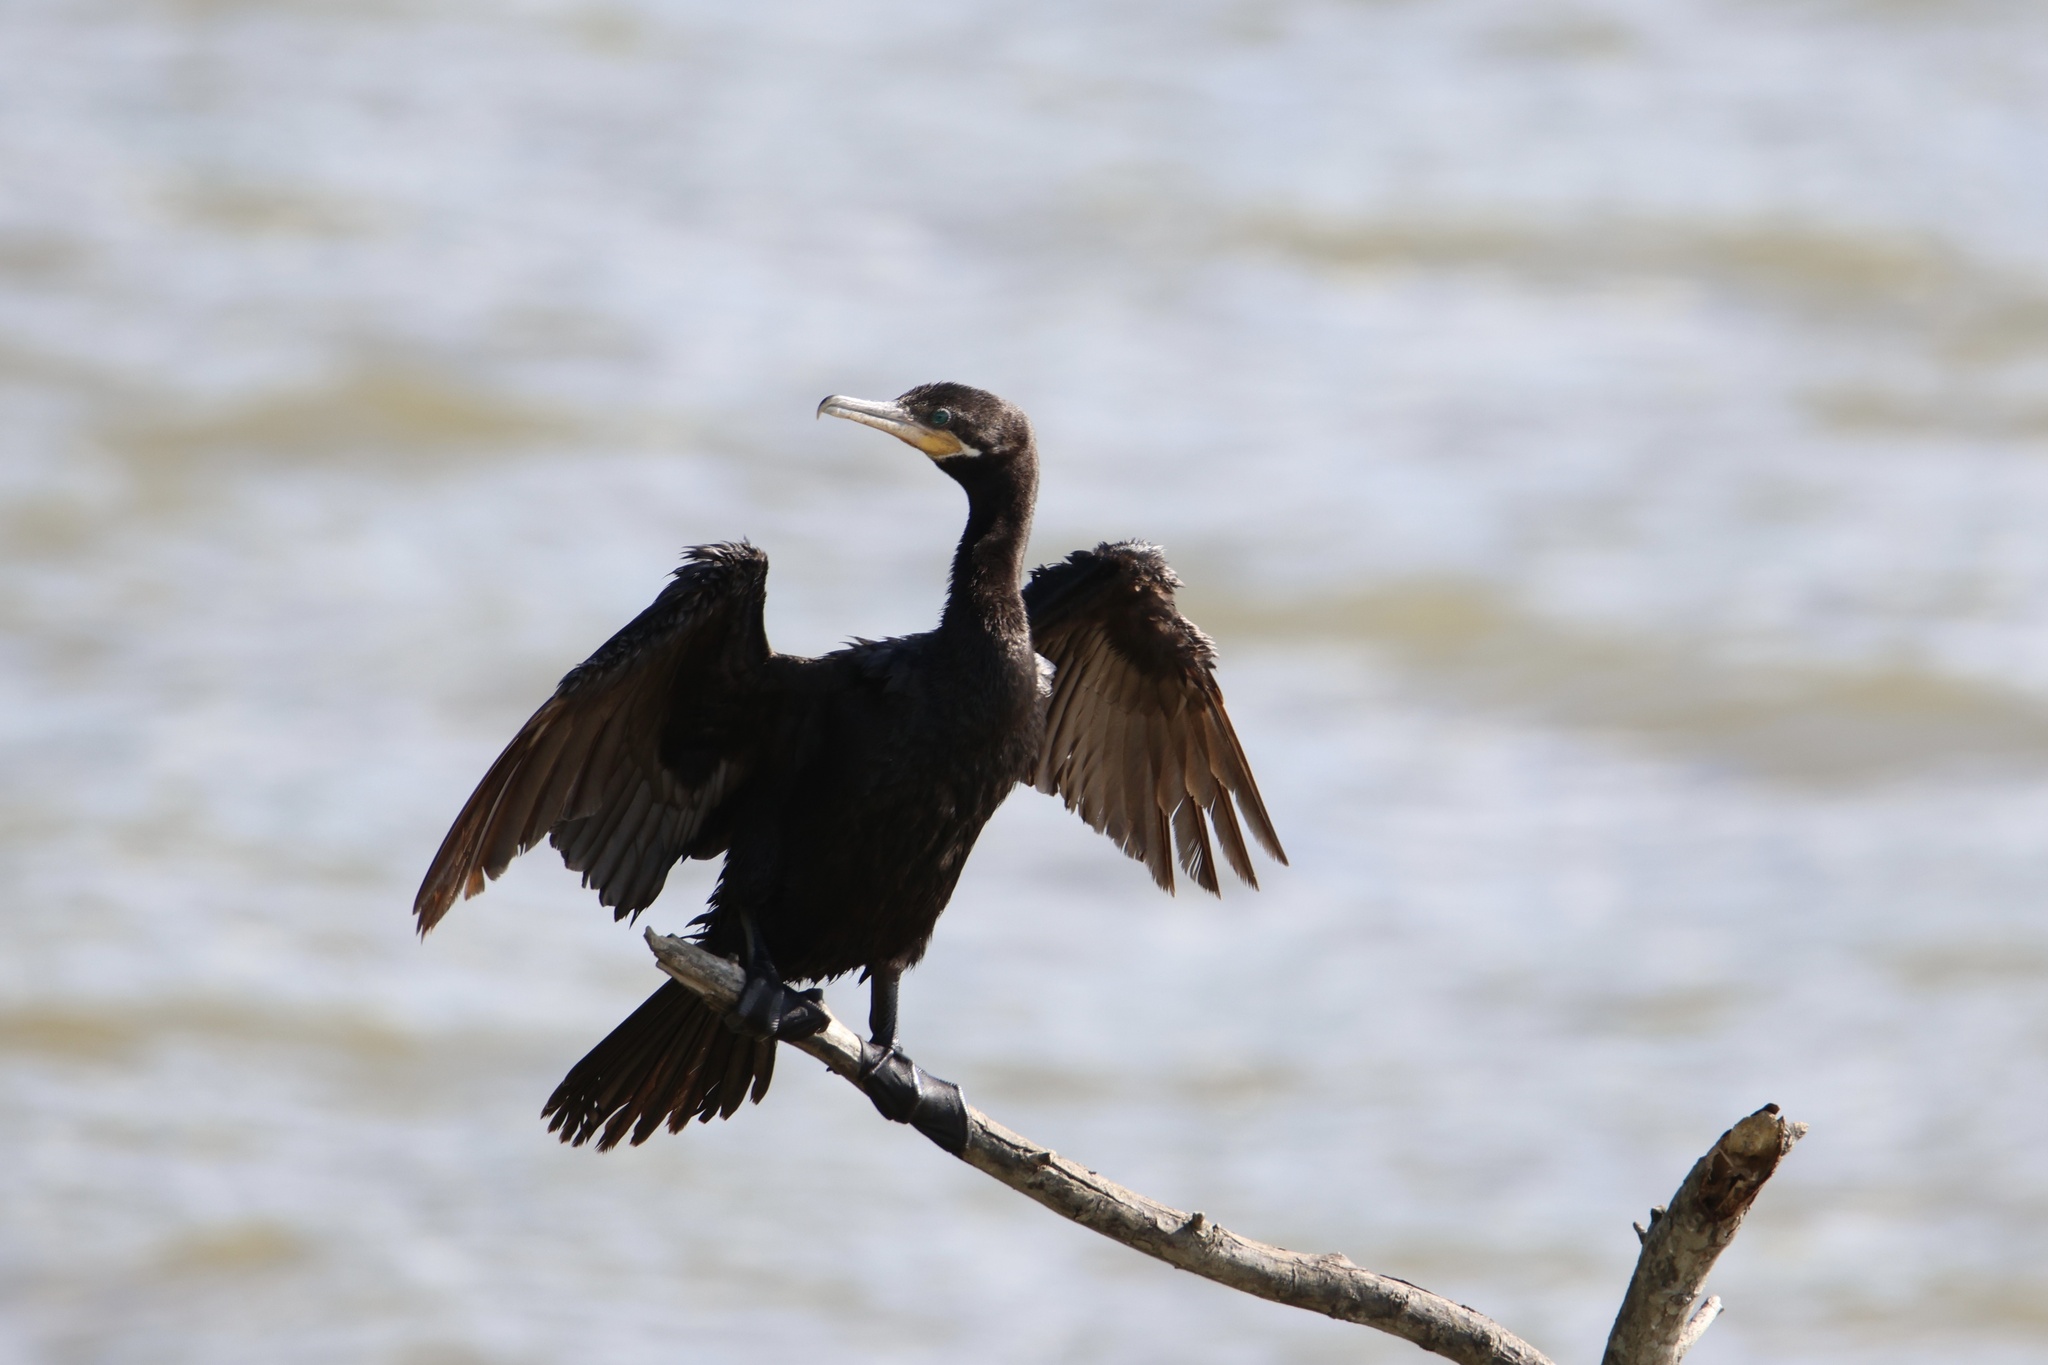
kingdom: Animalia
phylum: Chordata
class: Aves
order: Suliformes
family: Phalacrocoracidae
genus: Phalacrocorax
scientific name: Phalacrocorax brasilianus
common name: Neotropic cormorant
